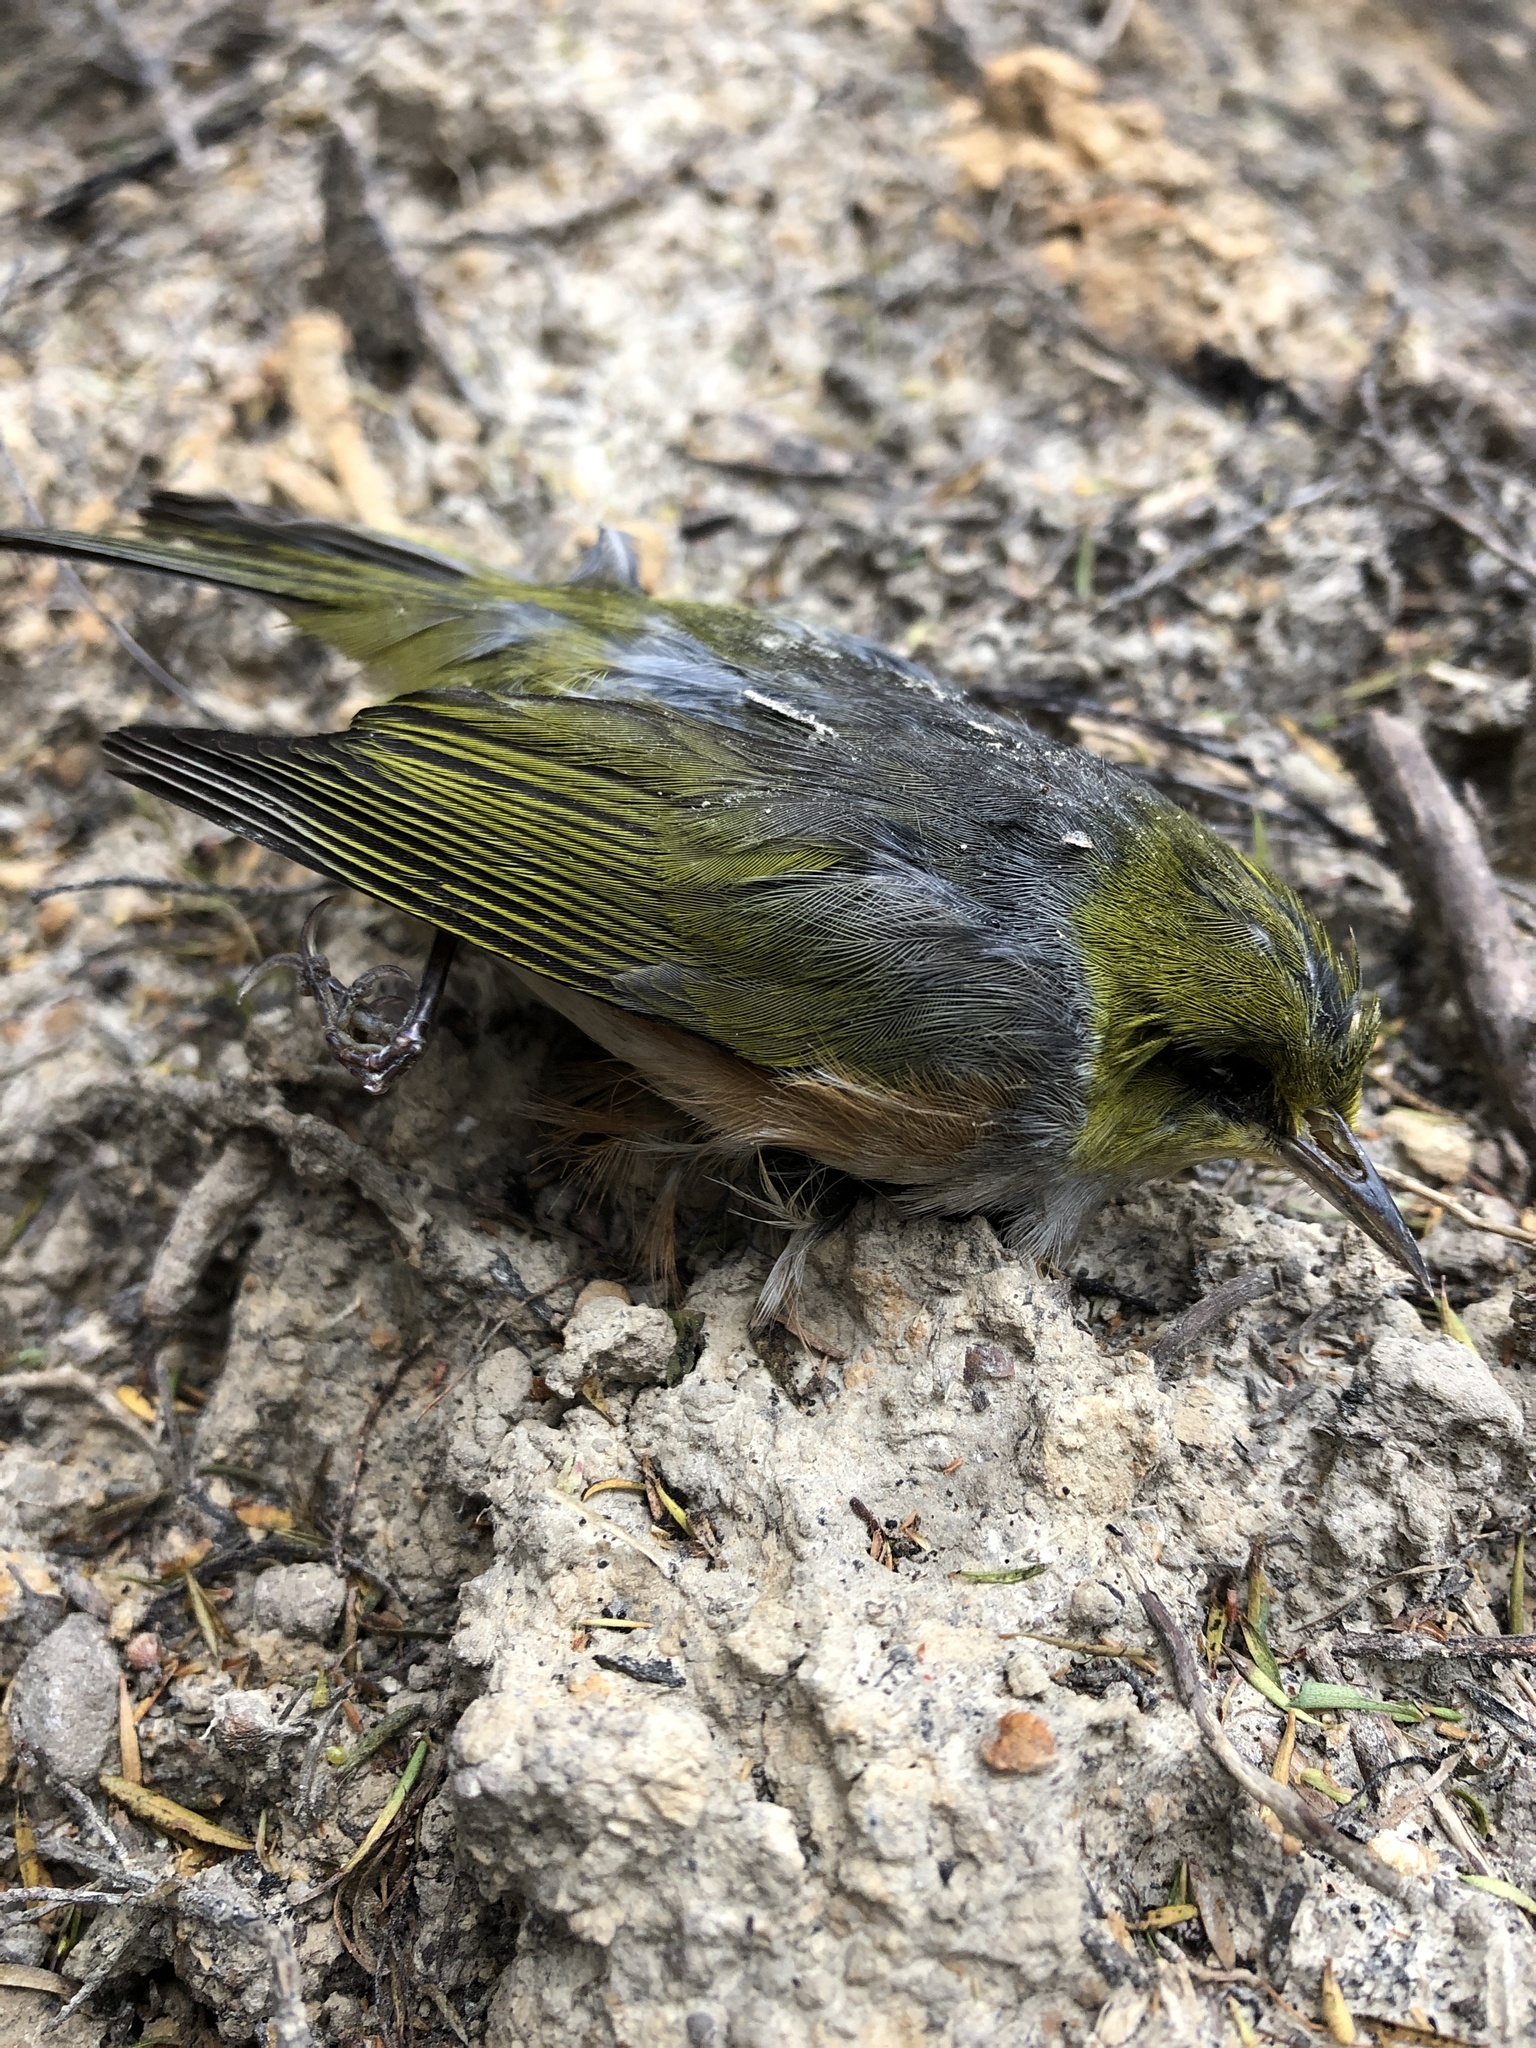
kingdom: Animalia
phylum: Chordata
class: Aves
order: Passeriformes
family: Zosteropidae
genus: Zosterops
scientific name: Zosterops lateralis
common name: Silvereye
